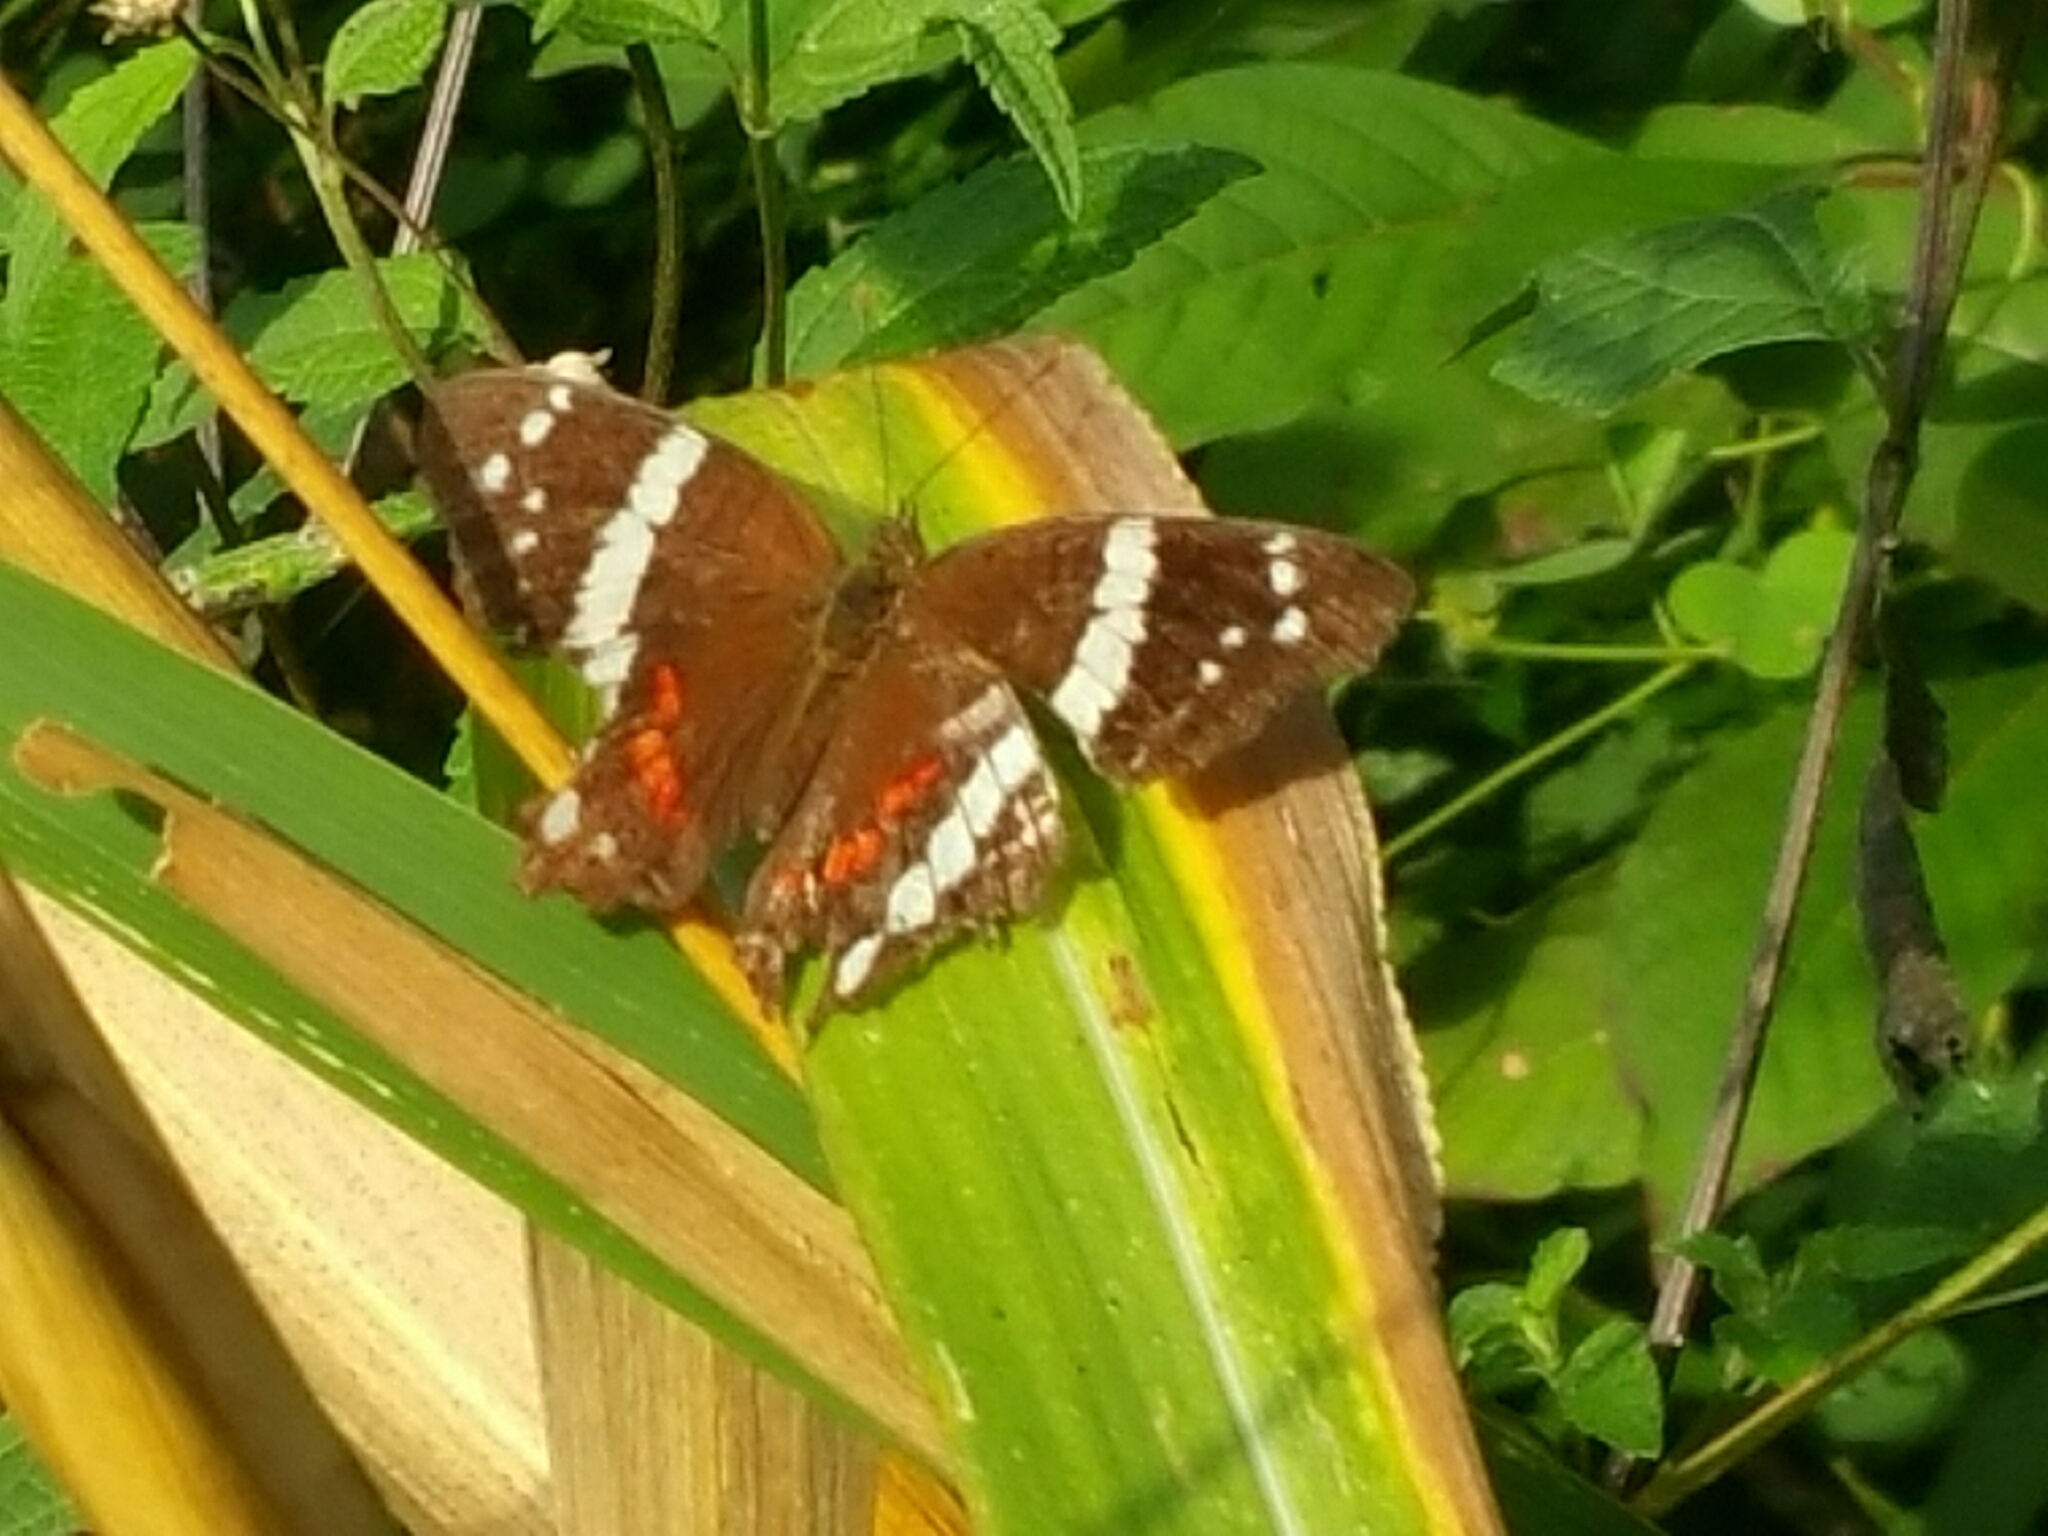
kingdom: Animalia
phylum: Arthropoda
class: Insecta
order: Lepidoptera
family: Nymphalidae
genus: Anartia
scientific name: Anartia fatima
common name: Banded peacock
